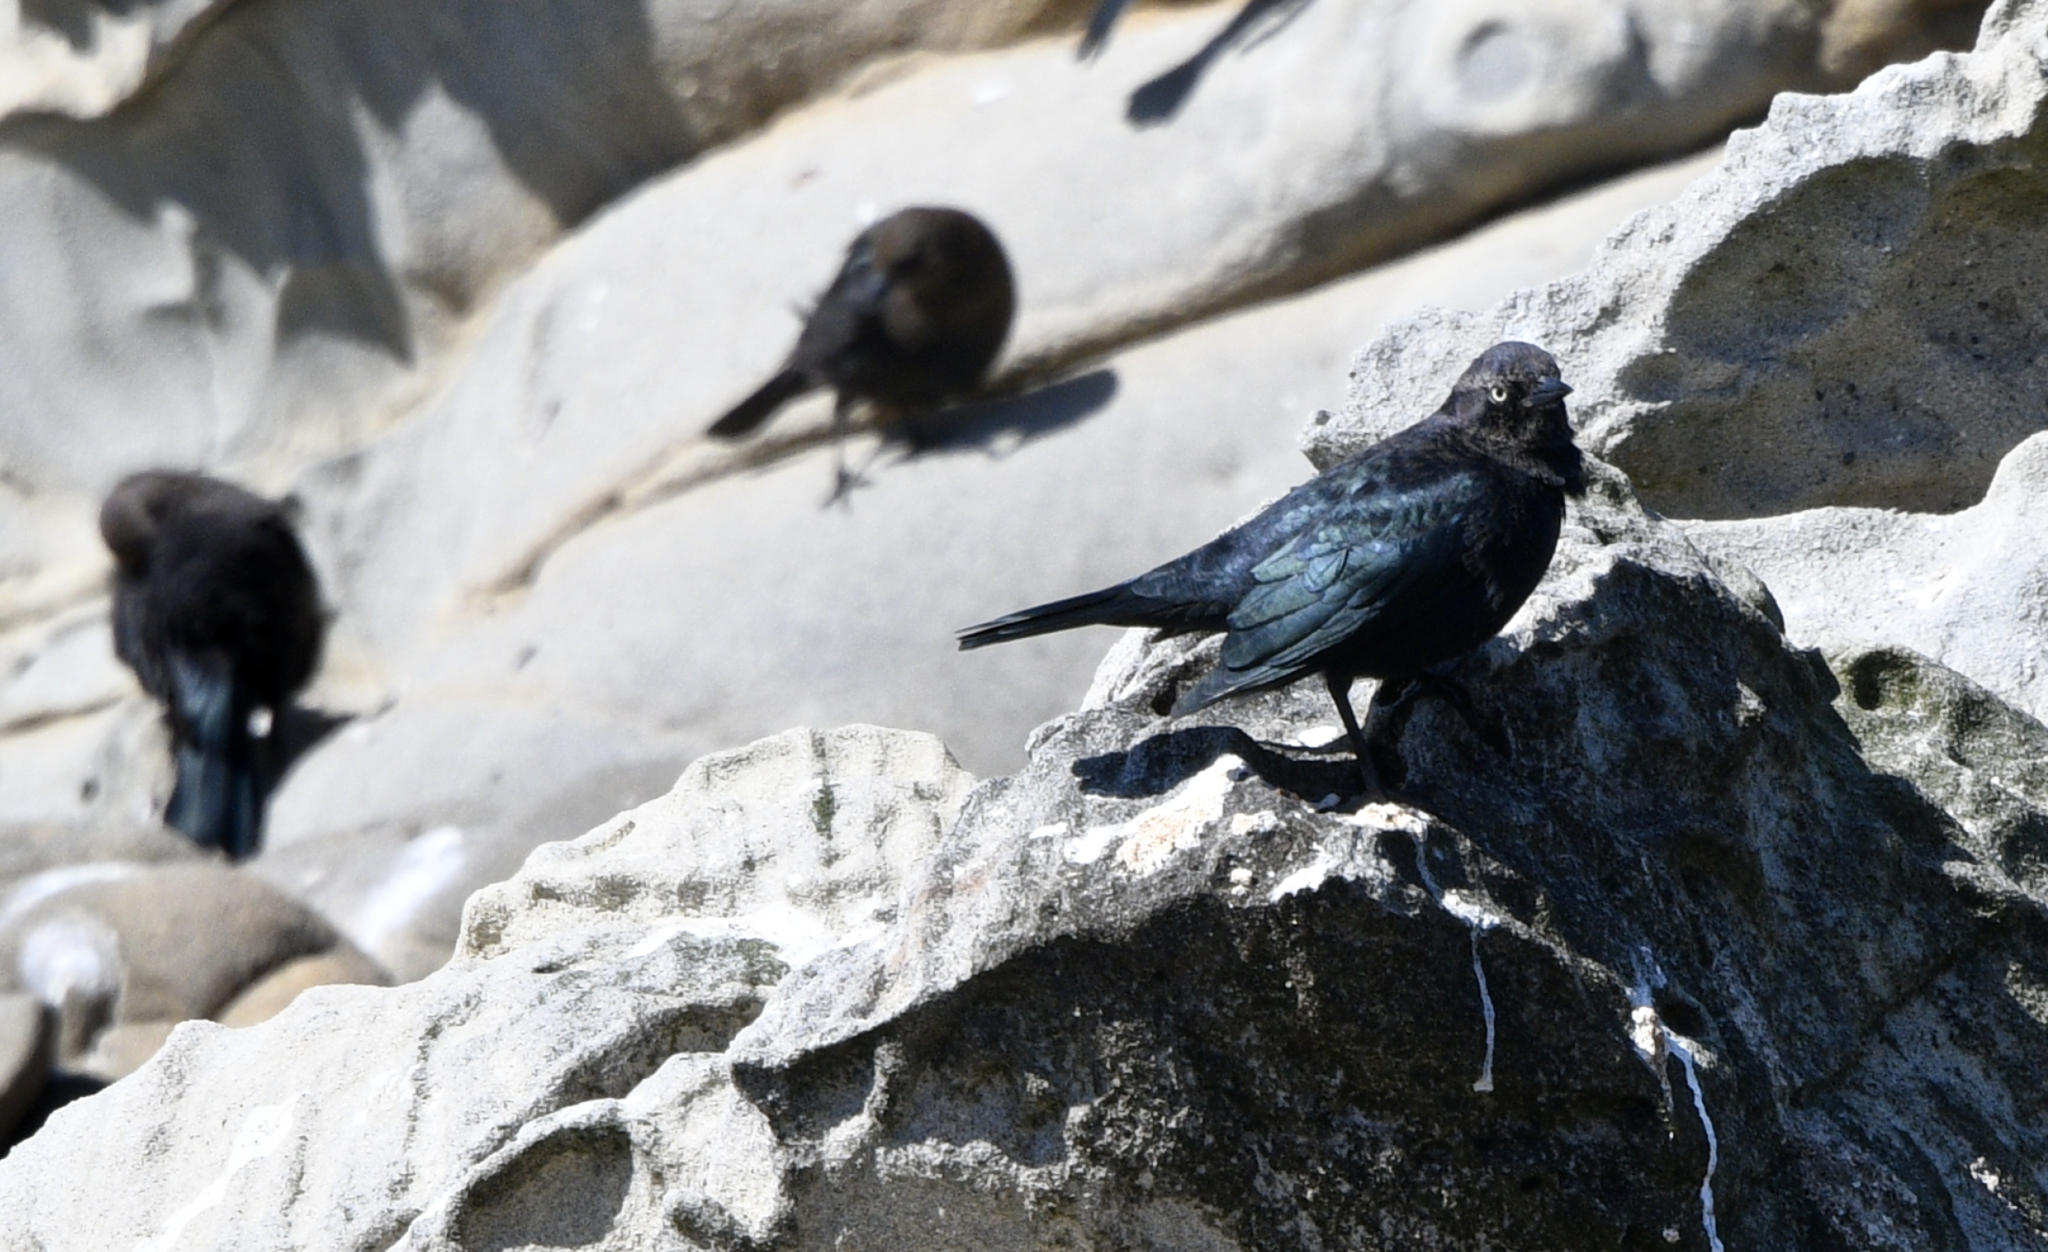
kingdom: Animalia
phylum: Chordata
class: Aves
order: Passeriformes
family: Icteridae
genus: Euphagus
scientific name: Euphagus cyanocephalus
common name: Brewer's blackbird
